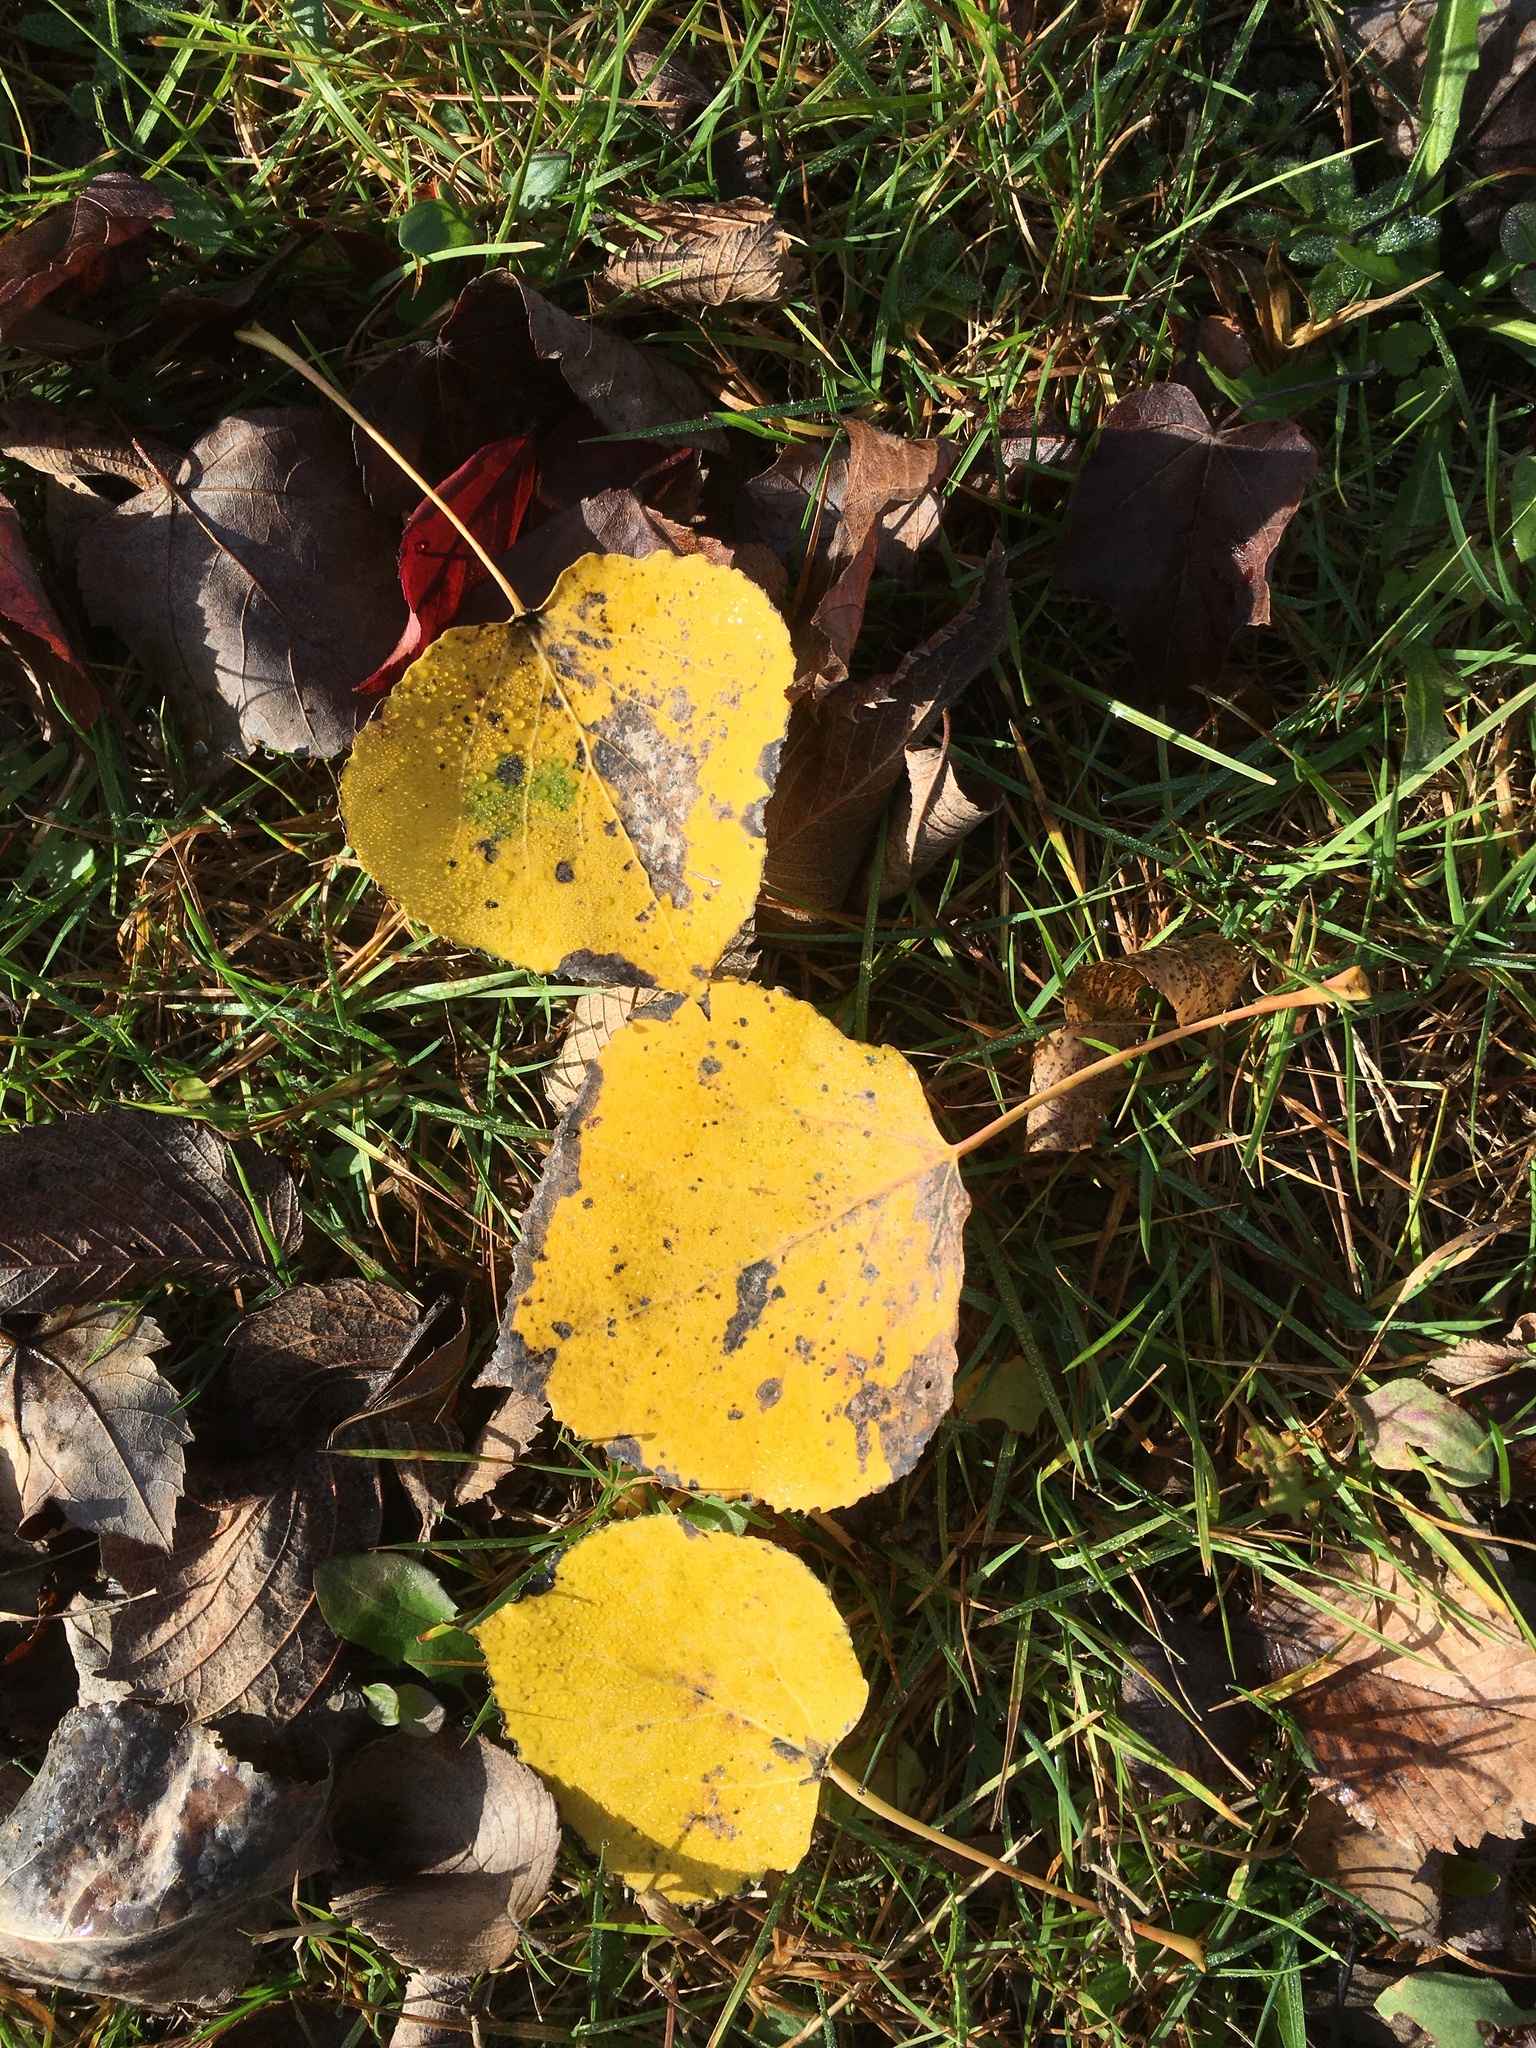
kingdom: Plantae
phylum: Tracheophyta
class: Magnoliopsida
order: Malpighiales
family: Salicaceae
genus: Populus
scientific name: Populus tremuloides
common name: Quaking aspen
